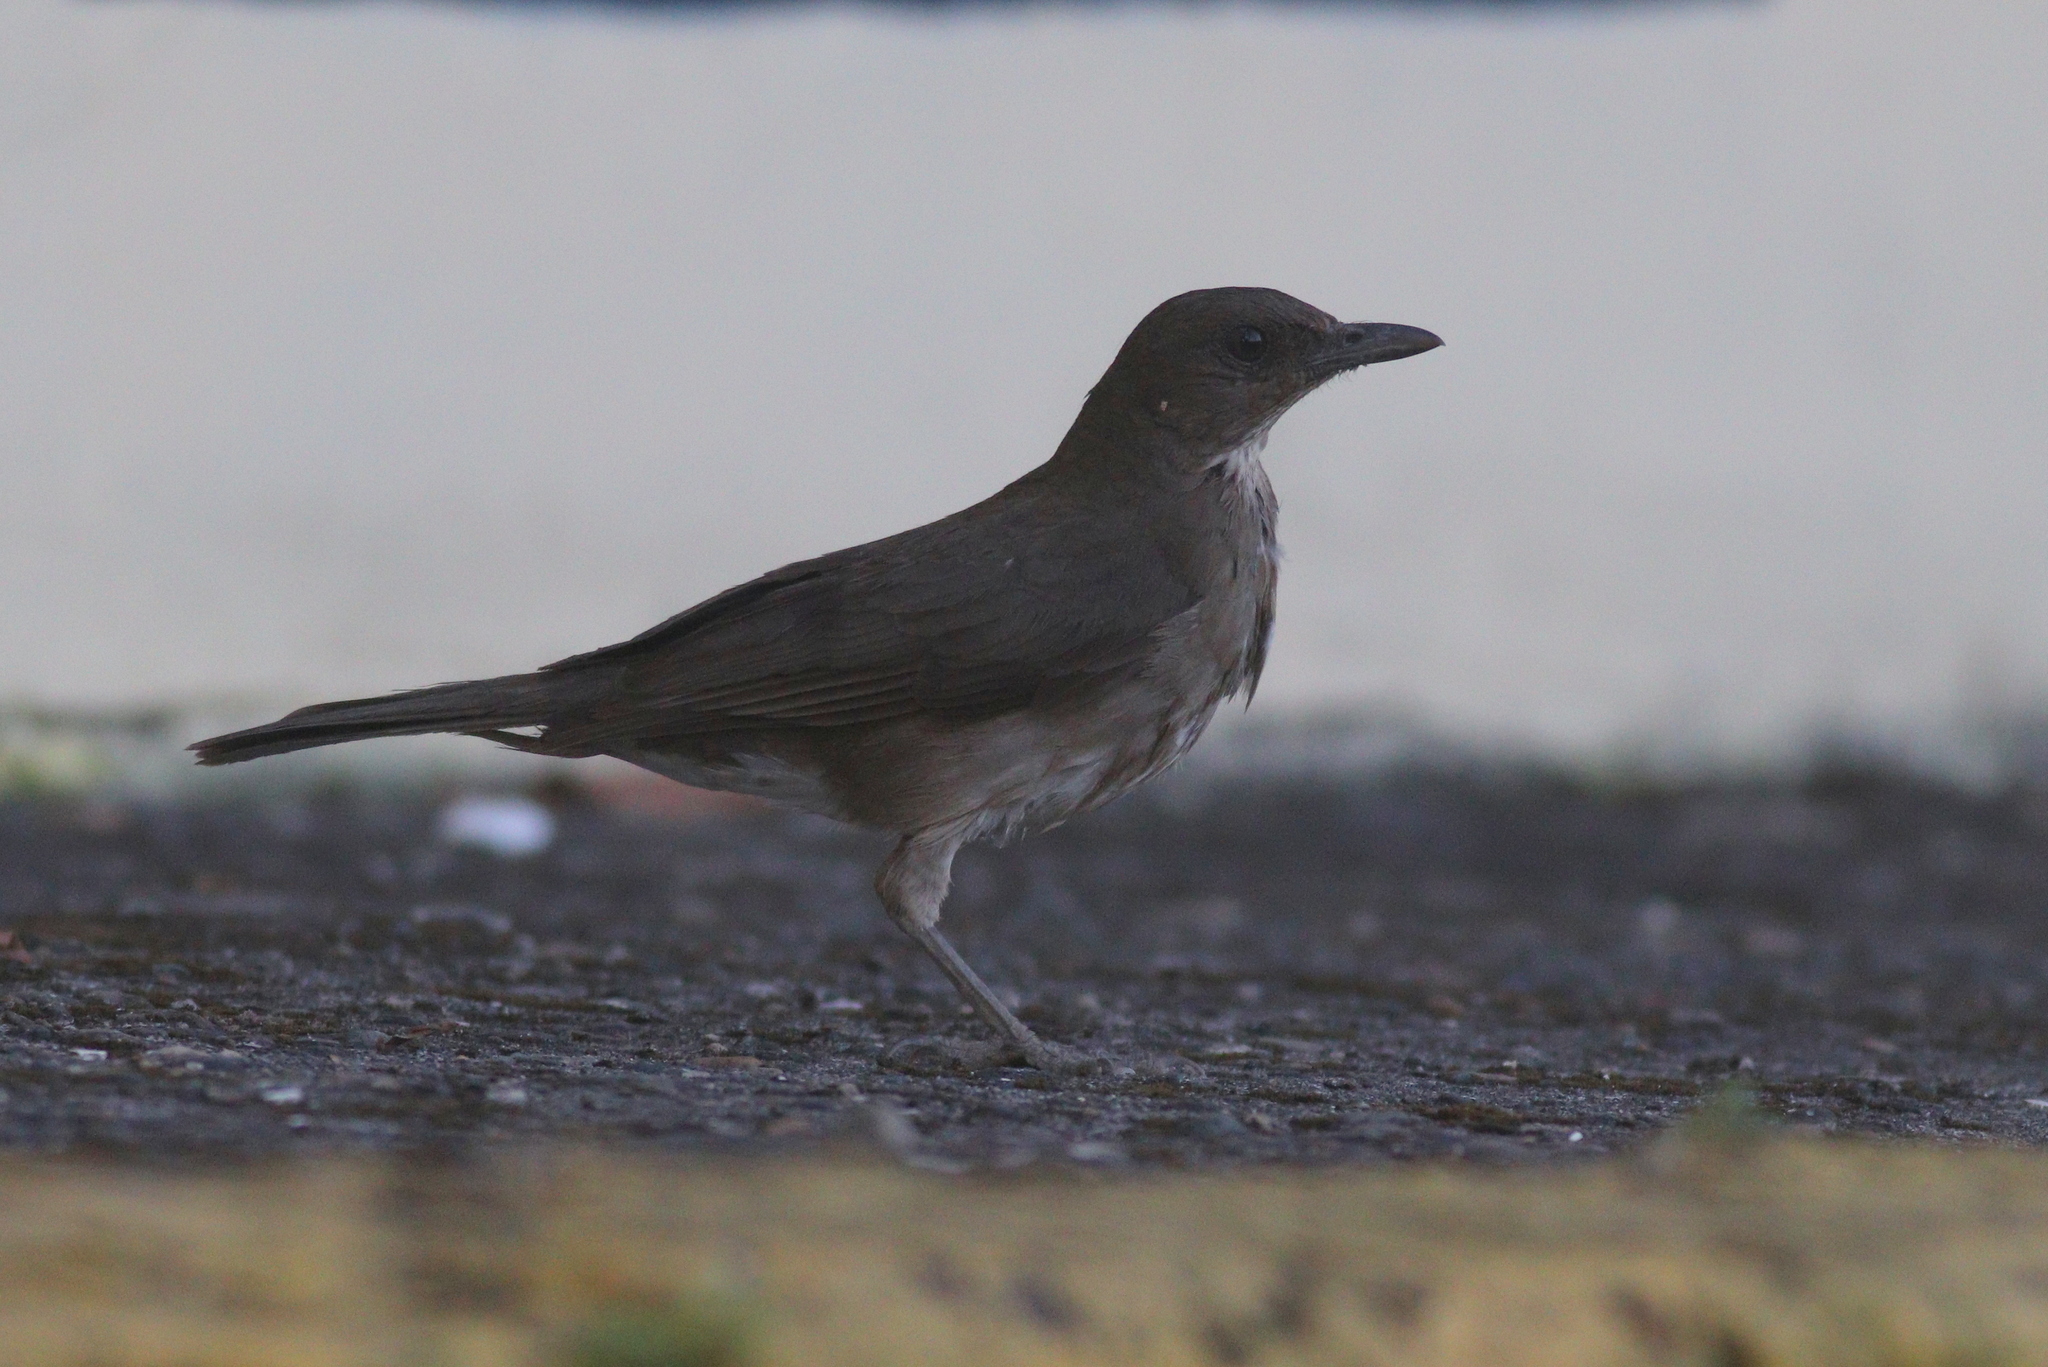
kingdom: Animalia
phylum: Chordata
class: Aves
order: Passeriformes
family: Turdidae
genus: Turdus
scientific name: Turdus ignobilis
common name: Black-billed thrush
